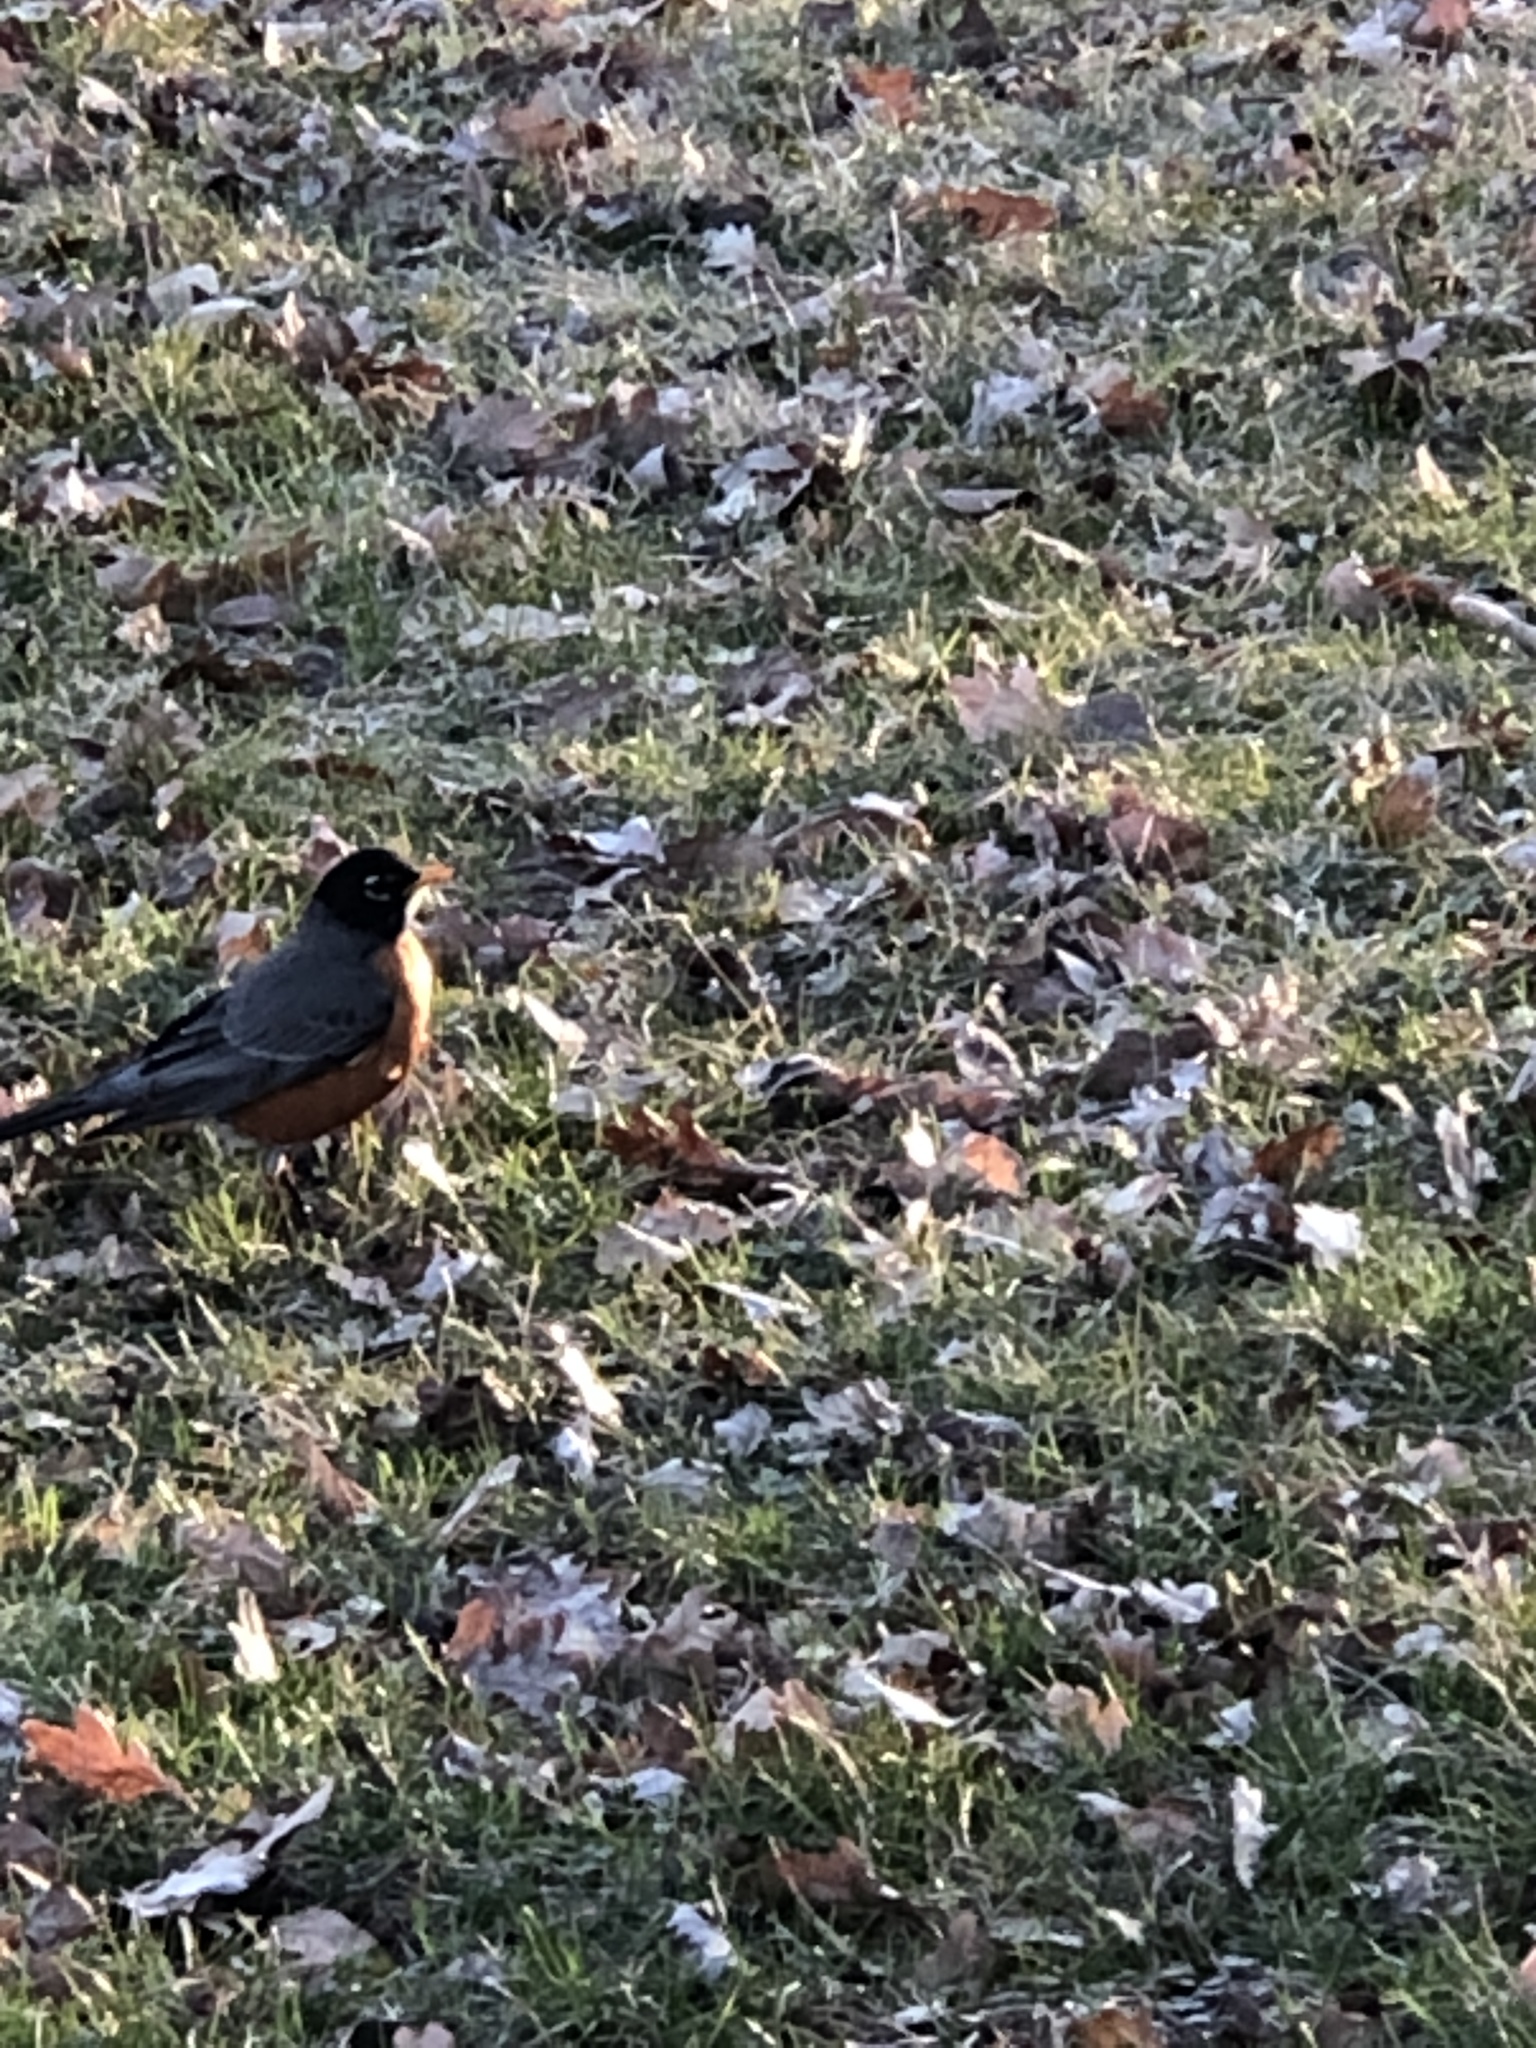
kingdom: Animalia
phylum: Chordata
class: Aves
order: Passeriformes
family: Turdidae
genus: Turdus
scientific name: Turdus migratorius
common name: American robin
